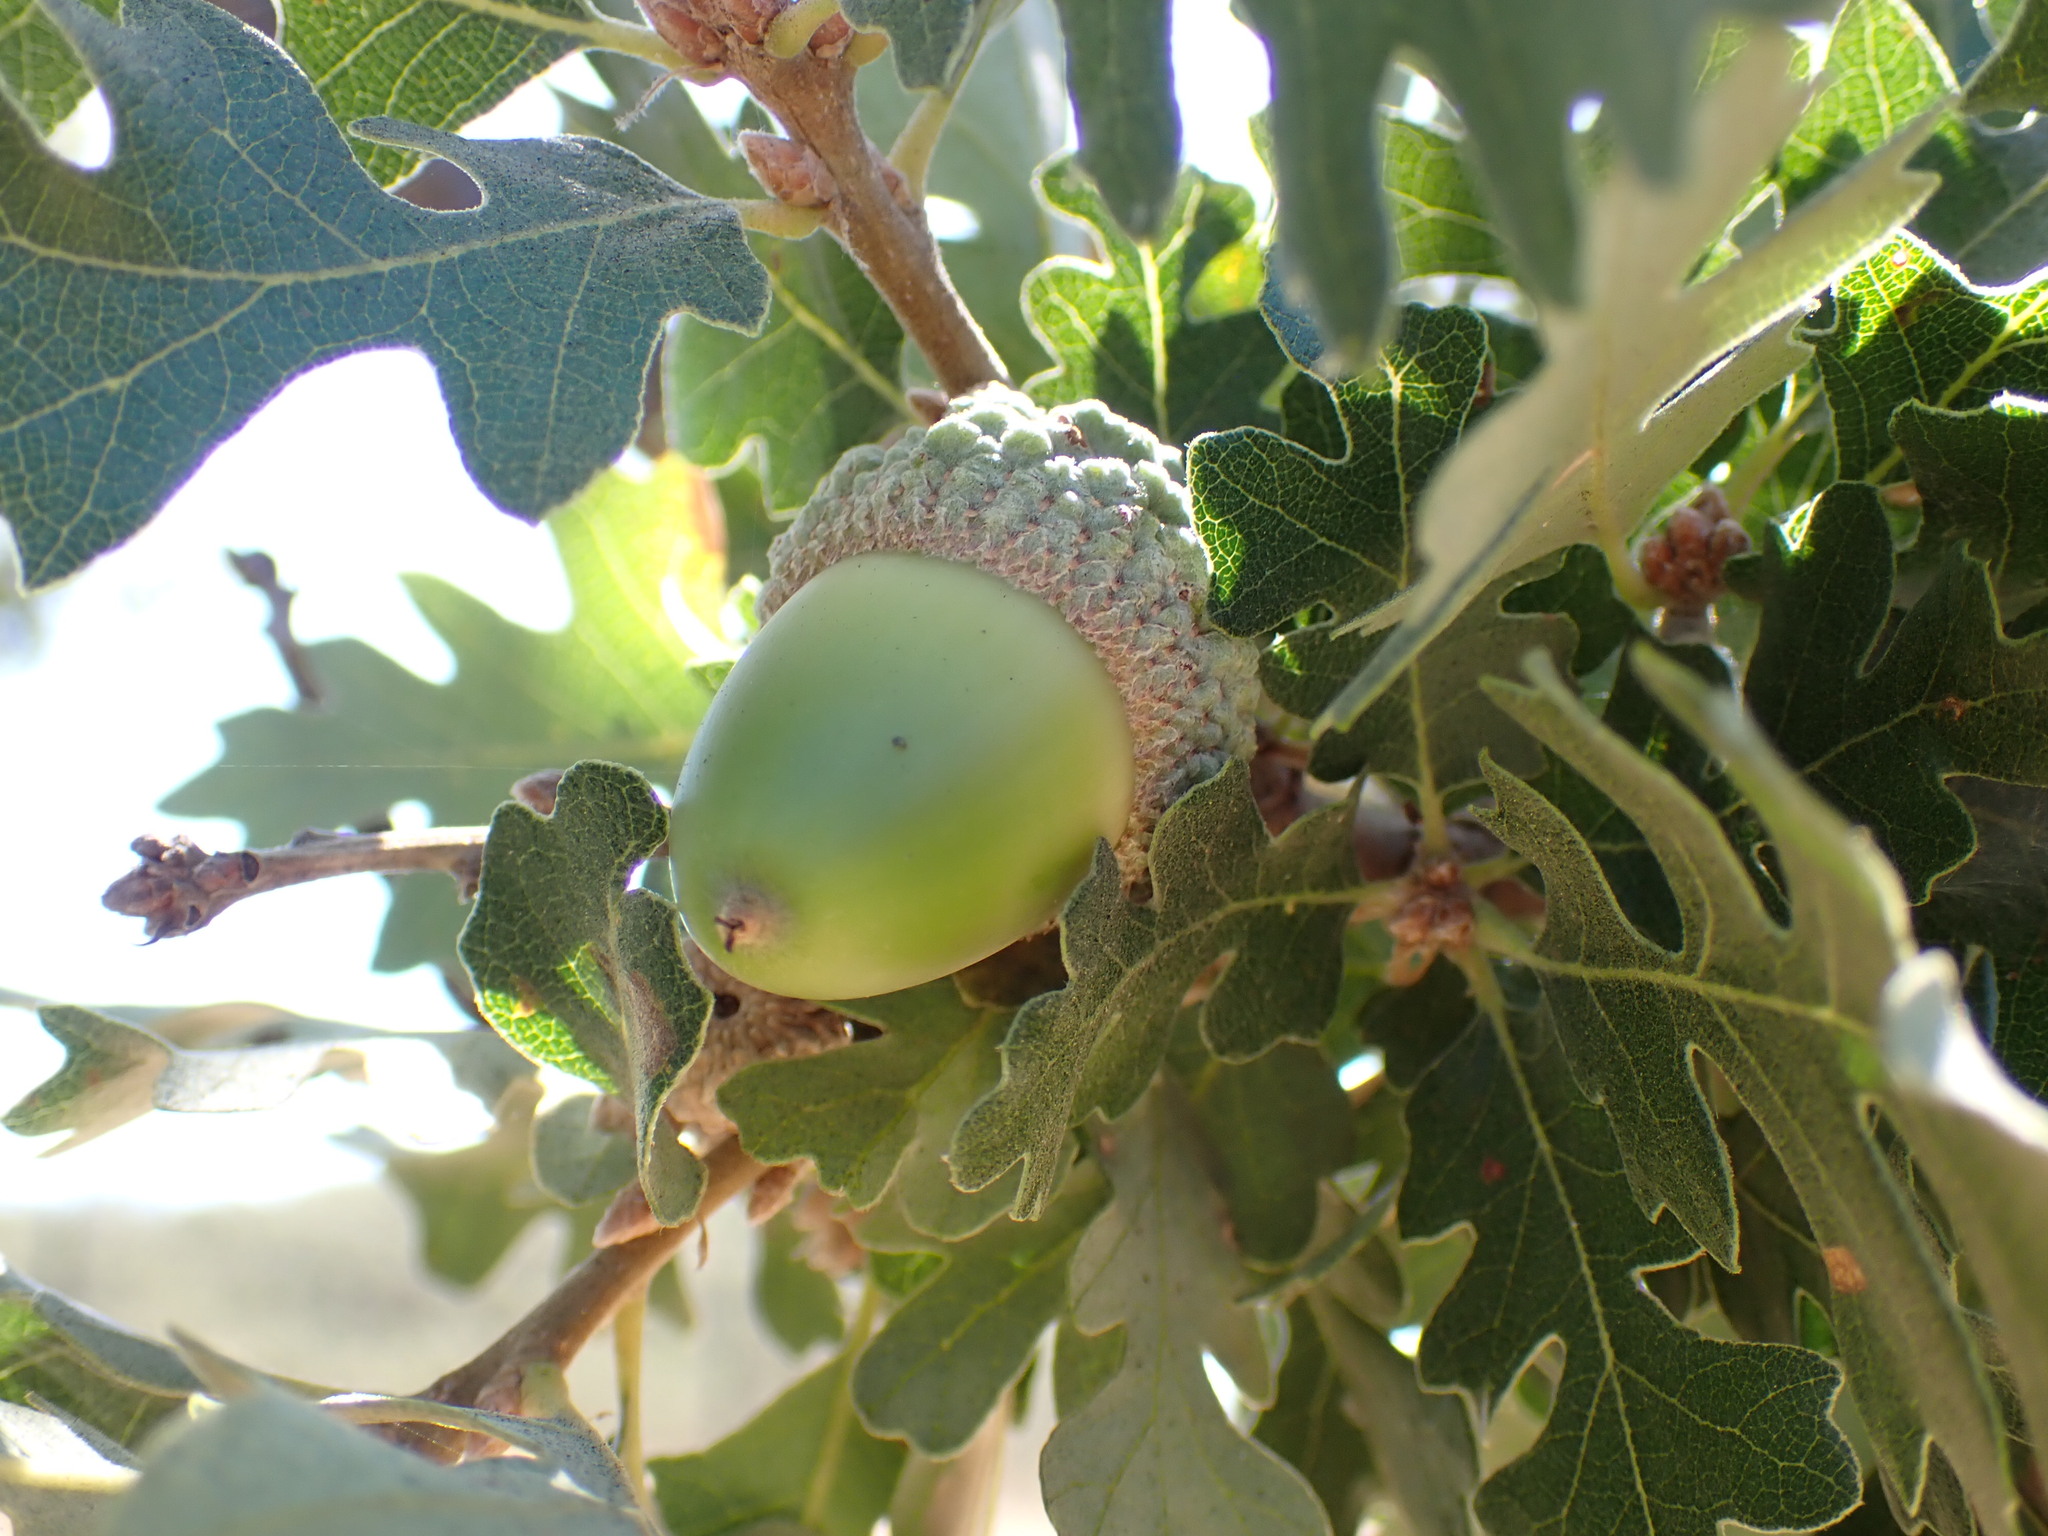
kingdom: Plantae
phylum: Tracheophyta
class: Magnoliopsida
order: Fagales
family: Fagaceae
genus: Quercus
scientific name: Quercus lobata
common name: Valley oak
